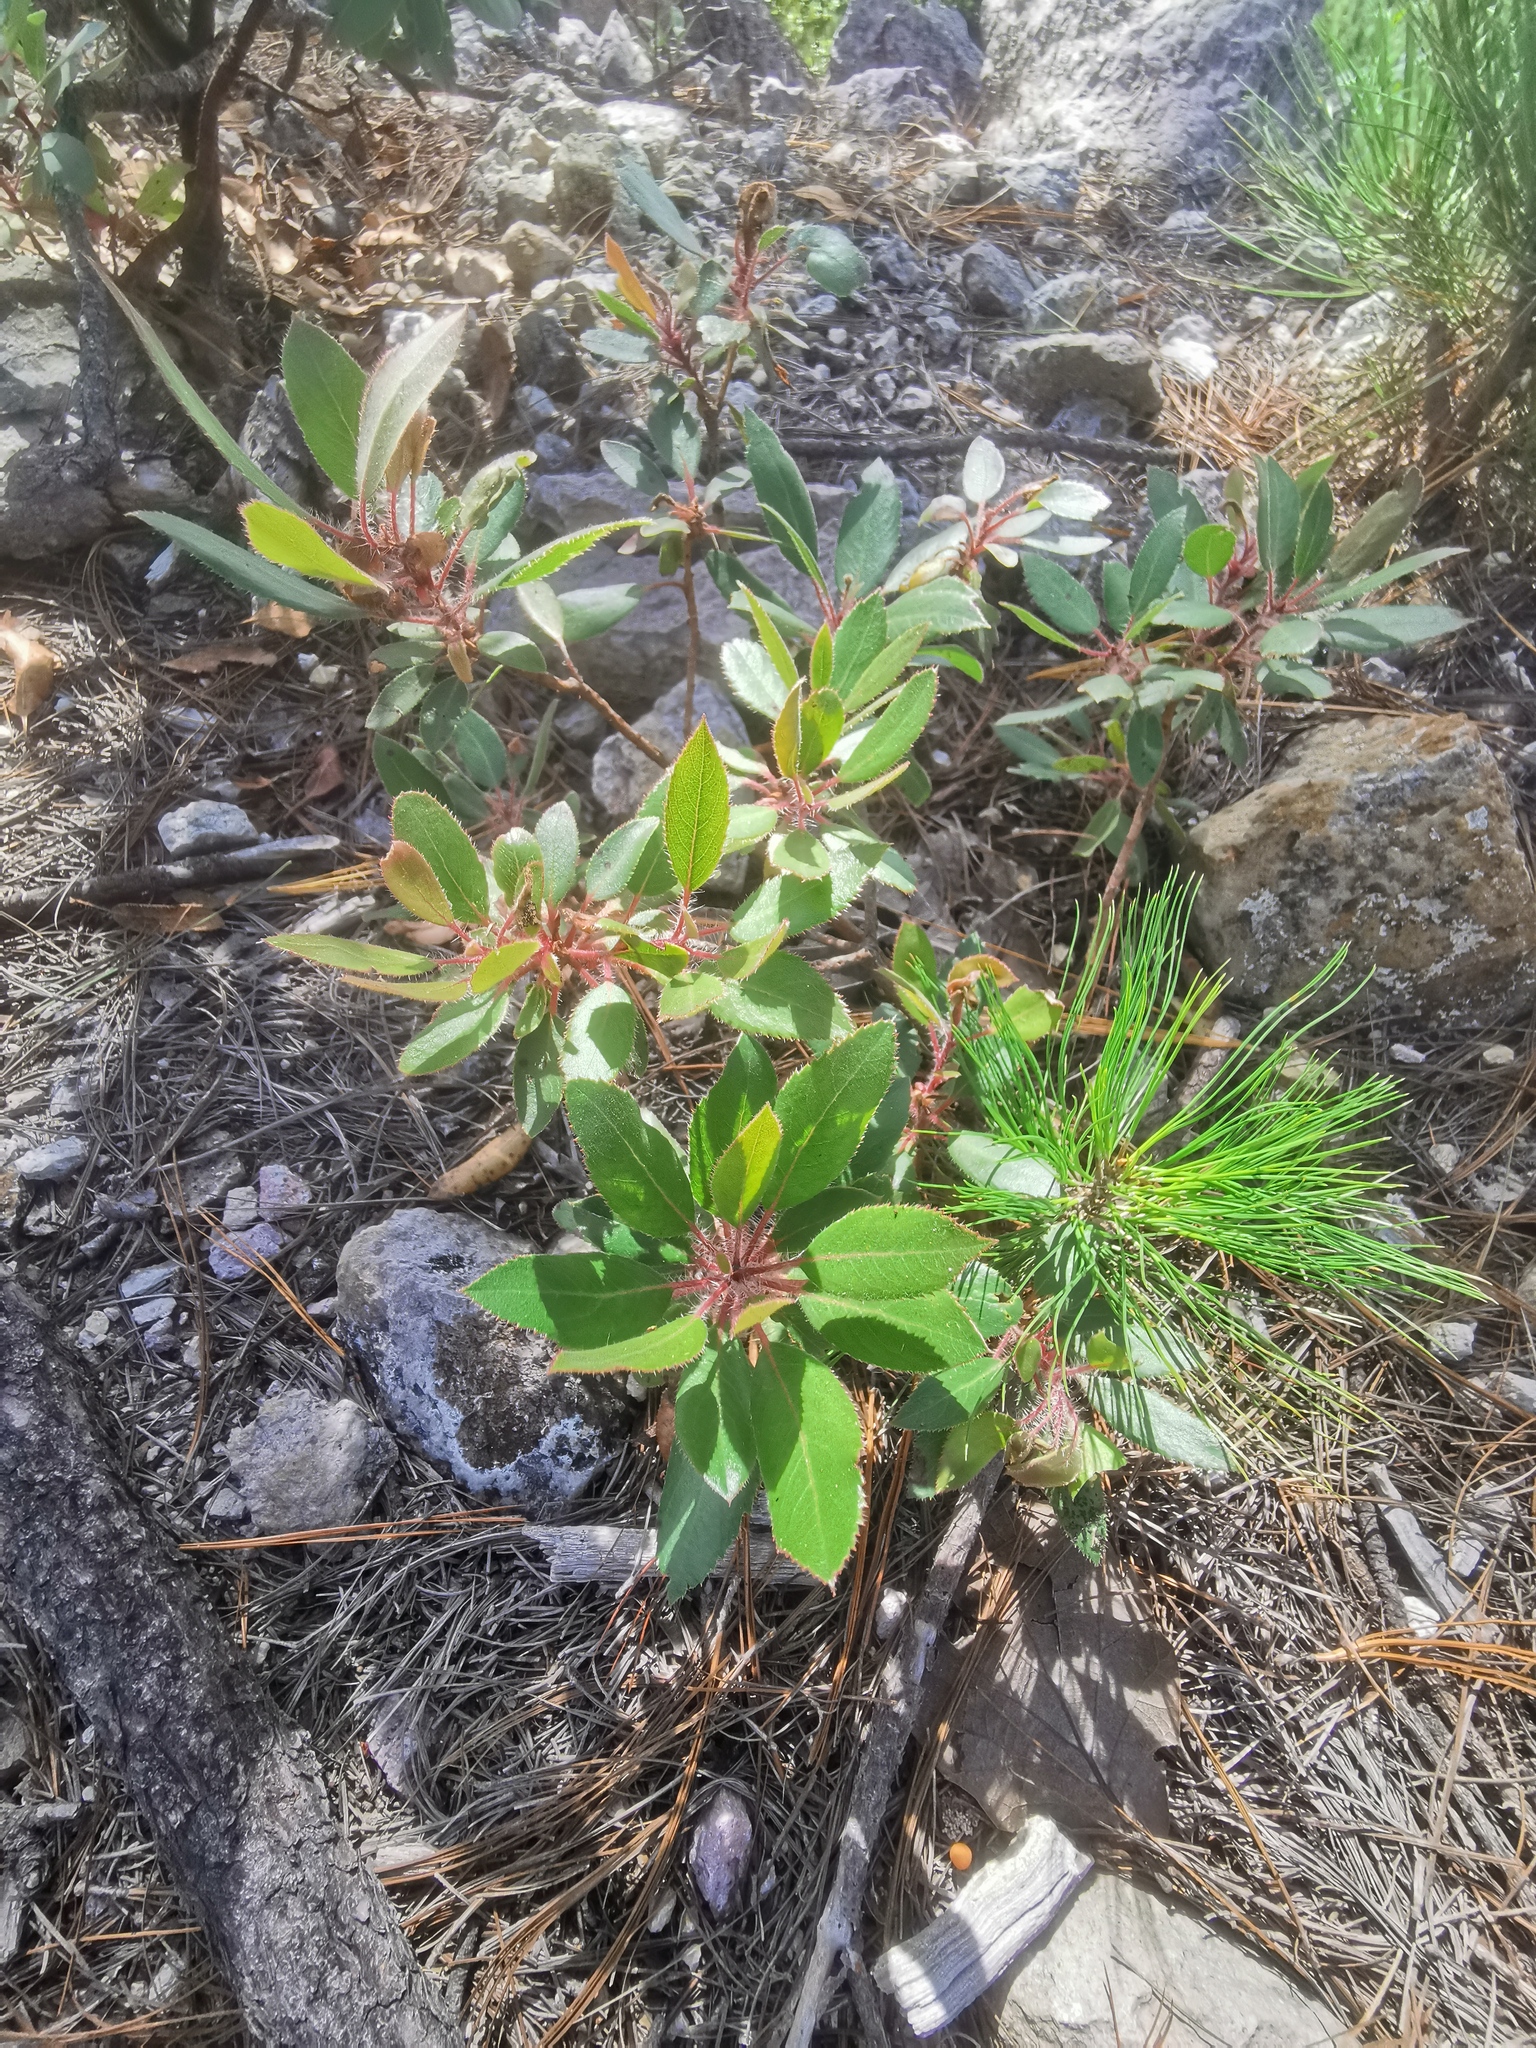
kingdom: Plantae
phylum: Tracheophyta
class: Magnoliopsida
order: Ericales
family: Ericaceae
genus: Arbutus
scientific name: Arbutus tessellata
